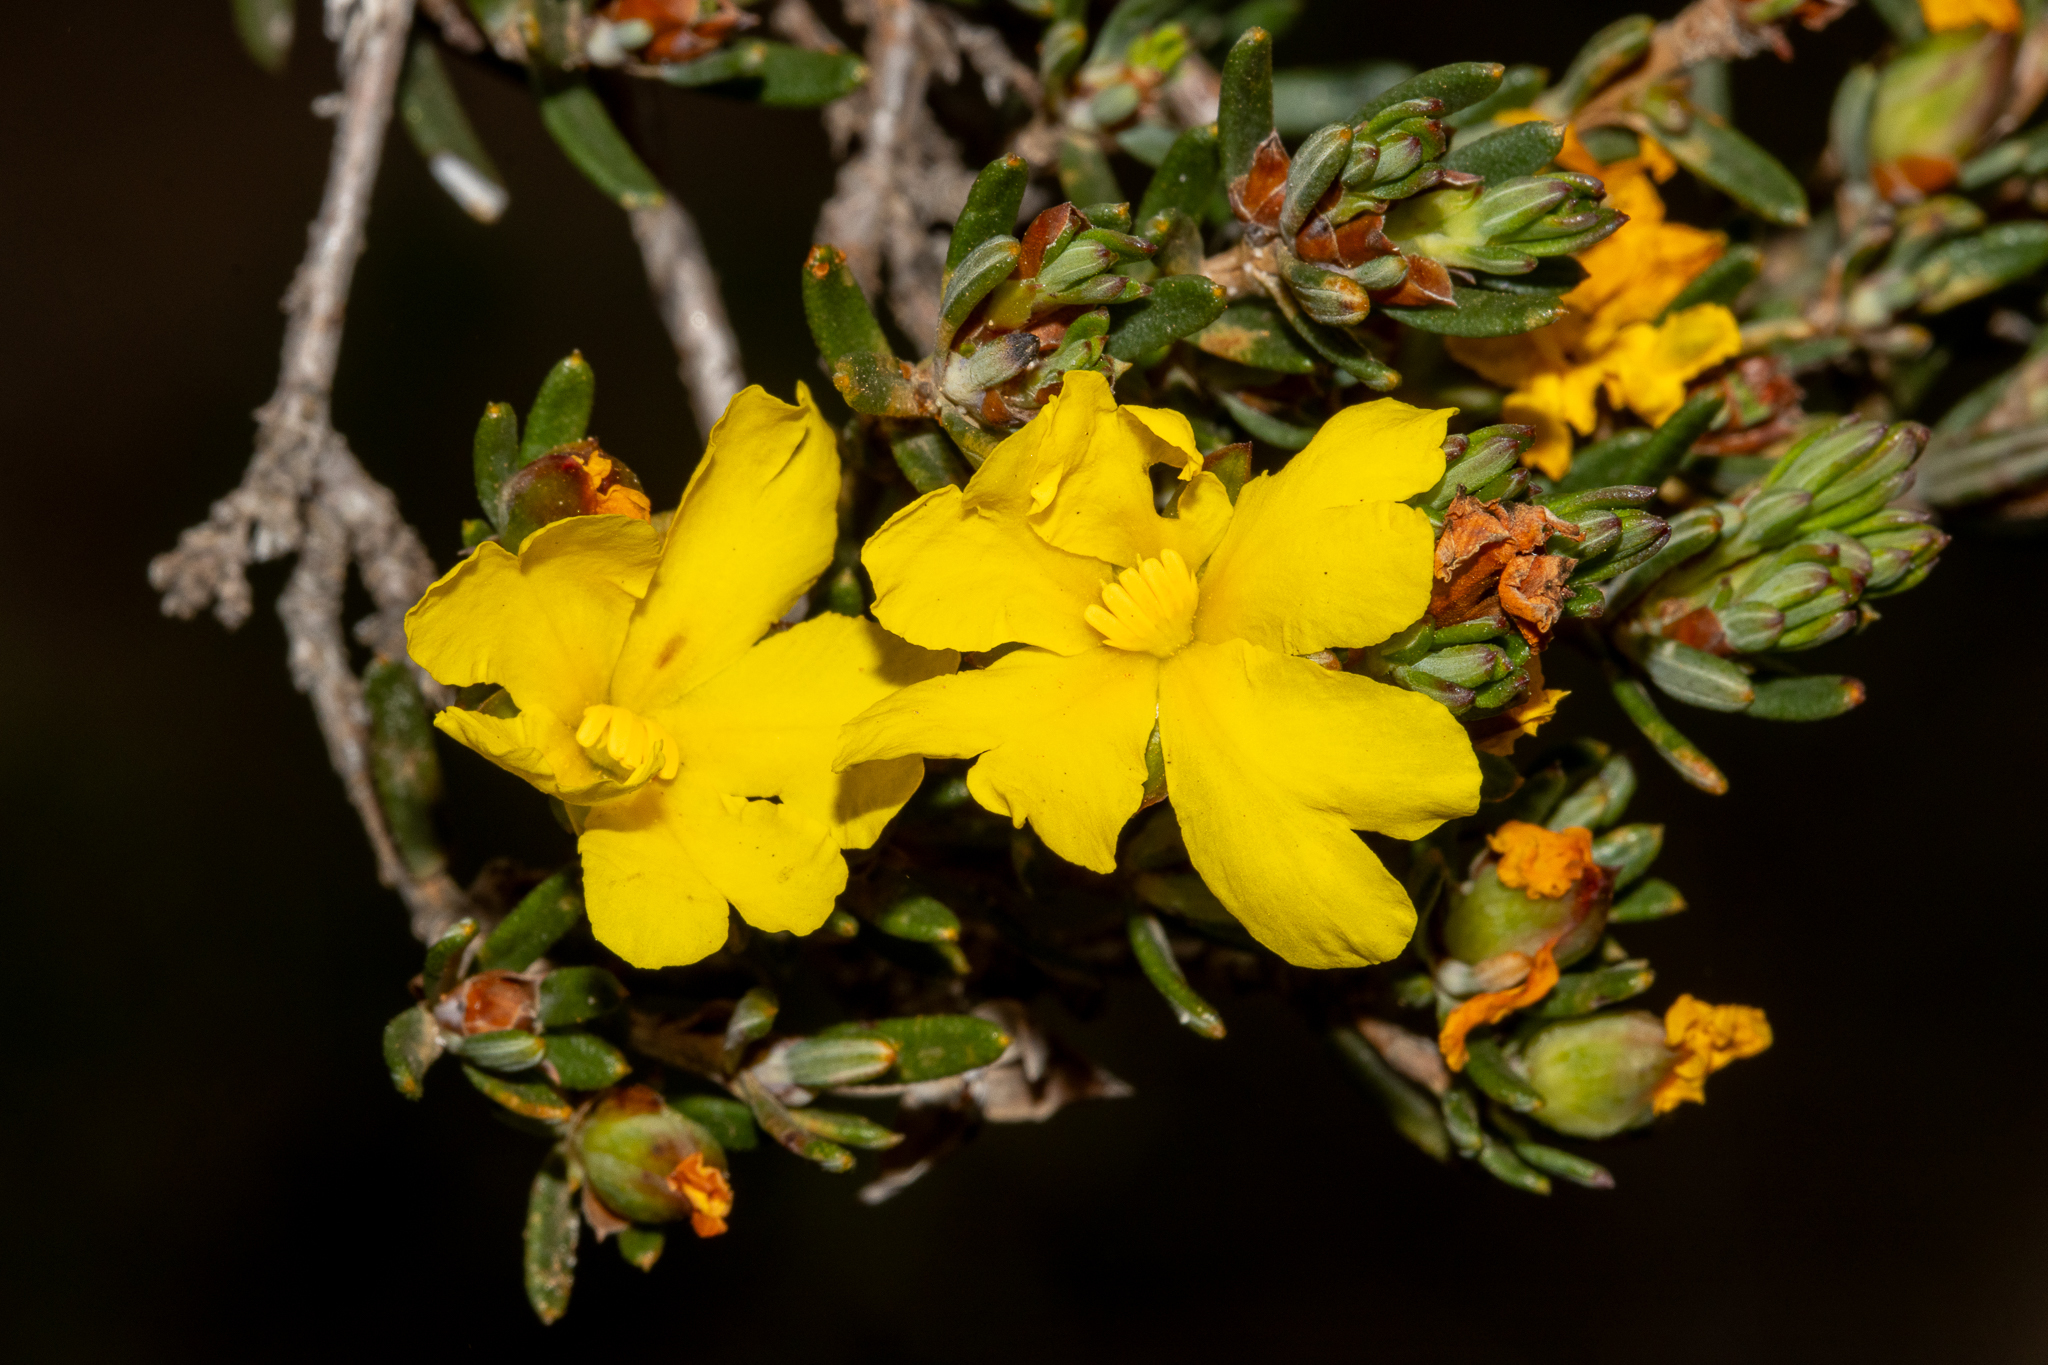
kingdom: Plantae
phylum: Tracheophyta
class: Magnoliopsida
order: Dilleniales
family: Dilleniaceae
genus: Hibbertia
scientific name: Hibbertia crassifolia
